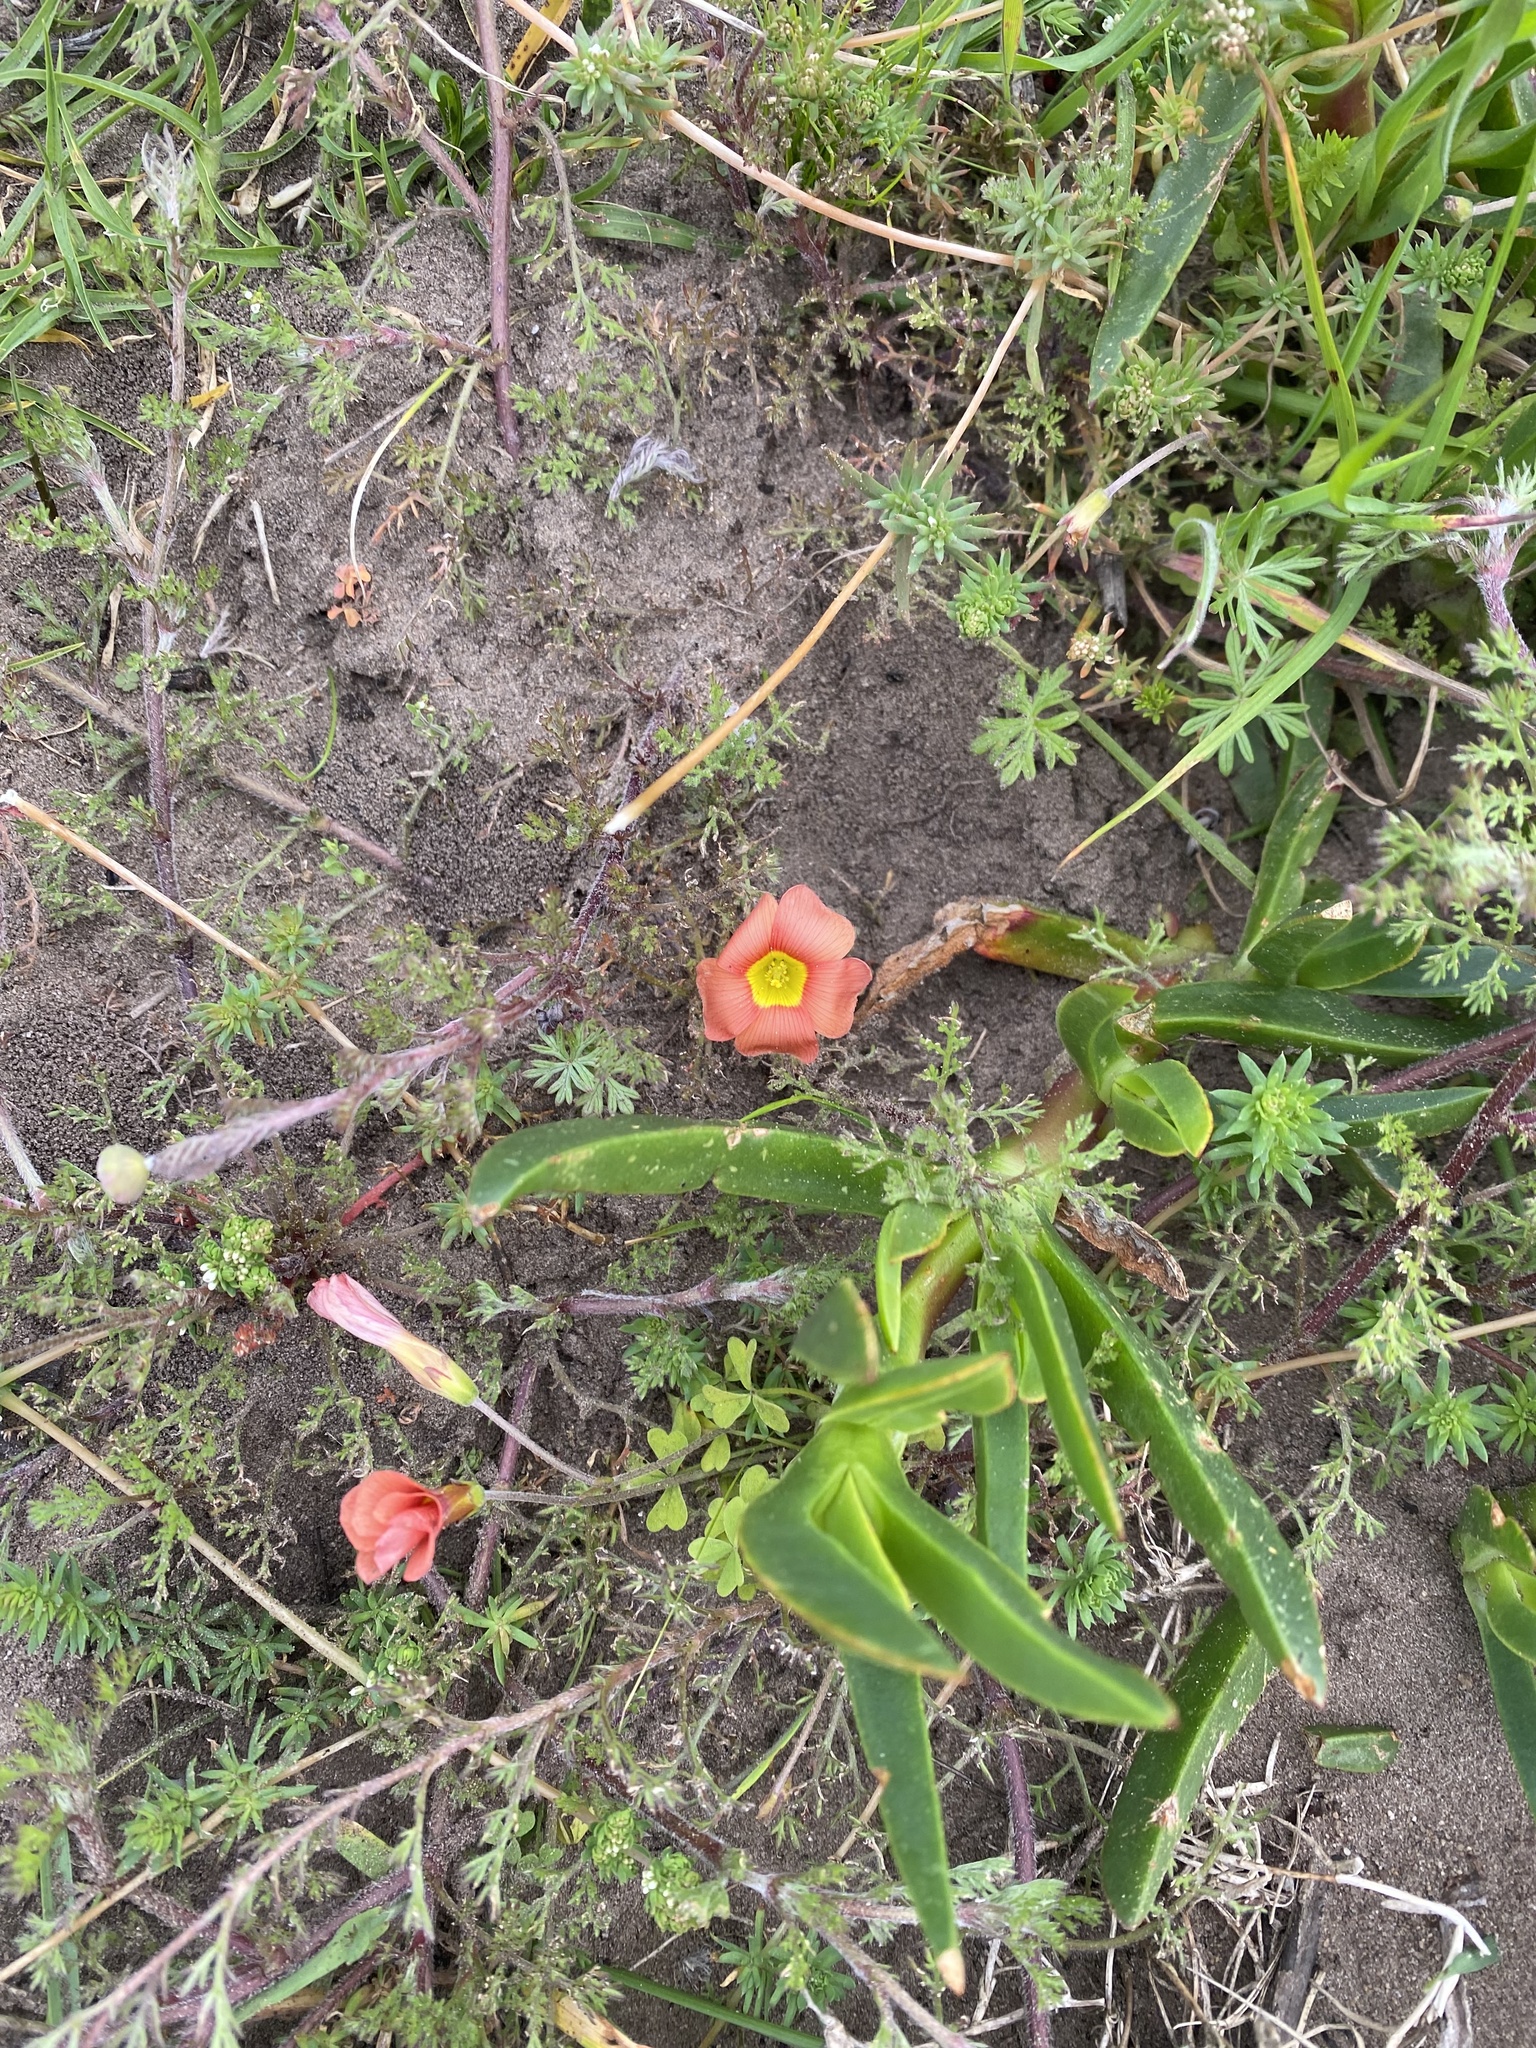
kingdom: Plantae
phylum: Tracheophyta
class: Magnoliopsida
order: Oxalidales
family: Oxalidaceae
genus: Oxalis
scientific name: Oxalis obtusa
